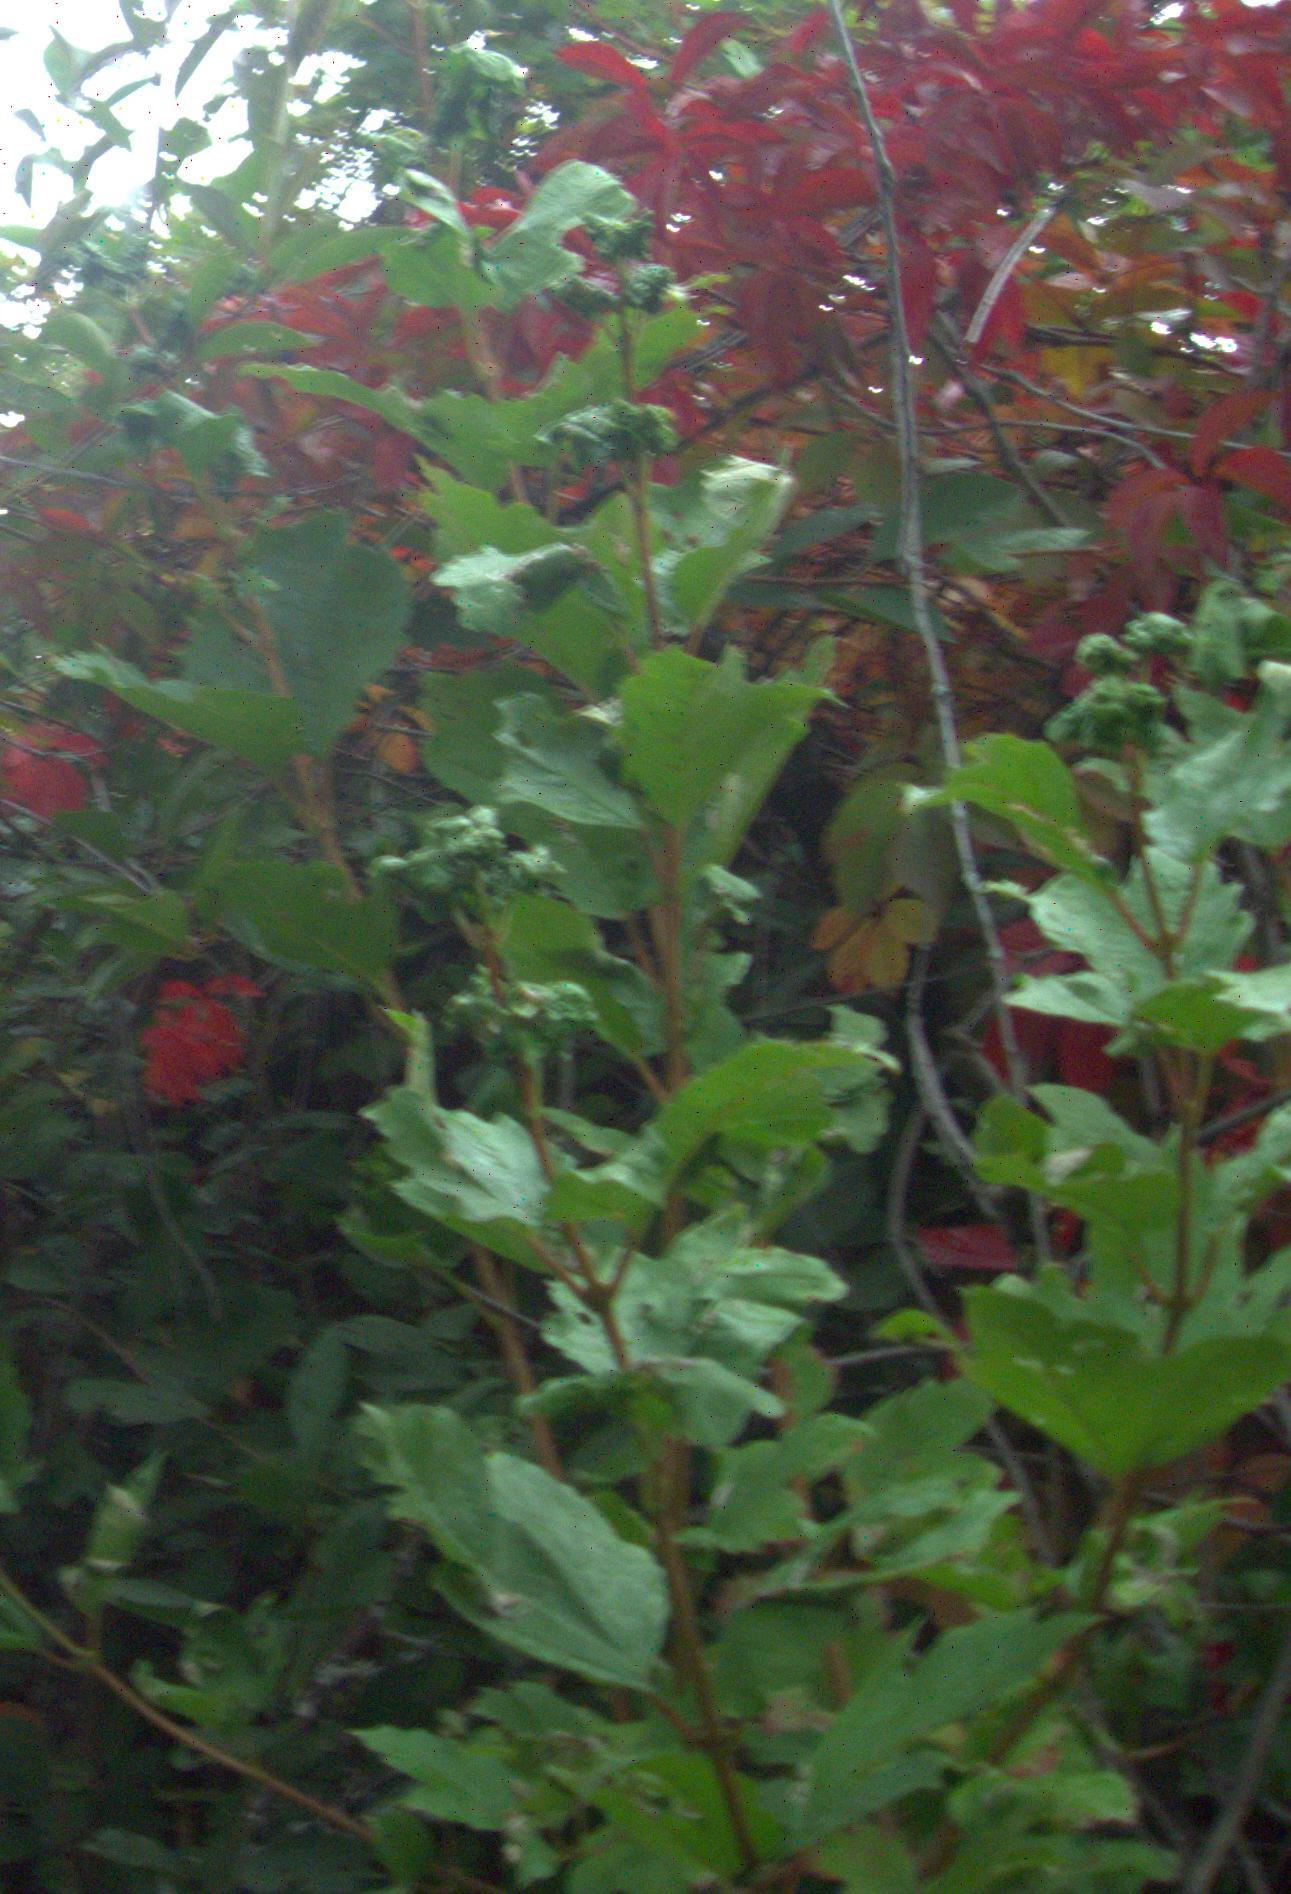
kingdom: Plantae
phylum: Tracheophyta
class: Magnoliopsida
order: Dipsacales
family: Viburnaceae
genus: Viburnum
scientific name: Viburnum opulus
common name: Guelder-rose
